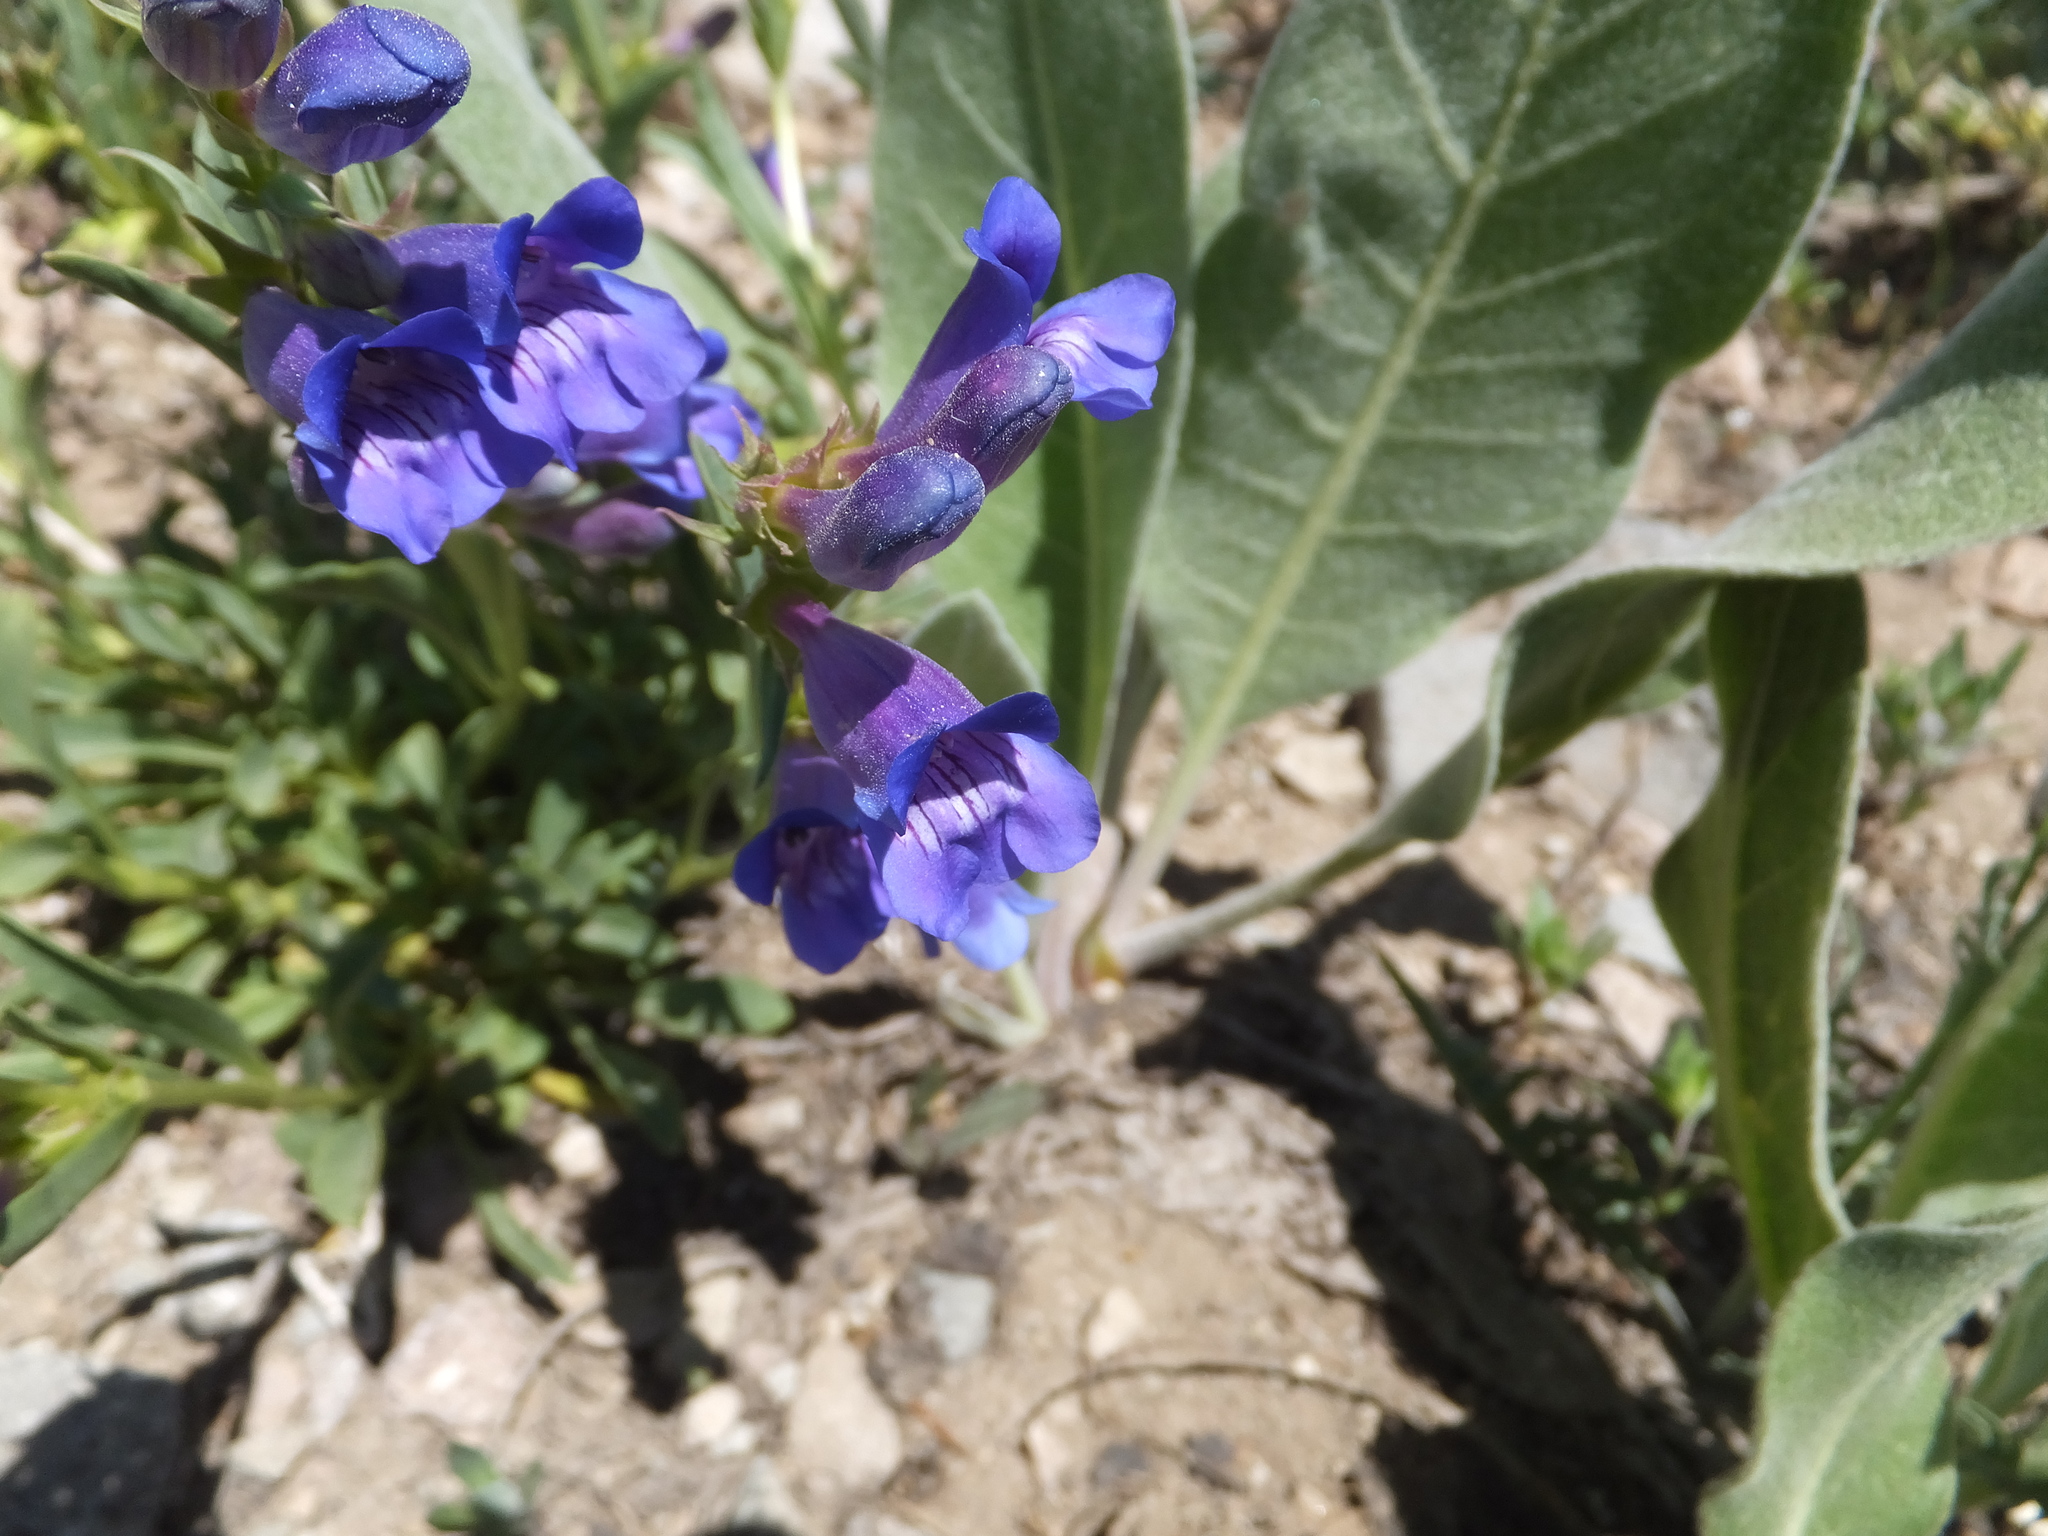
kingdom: Plantae
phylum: Tracheophyta
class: Magnoliopsida
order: Lamiales
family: Plantaginaceae
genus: Penstemon
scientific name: Penstemon speciosus
